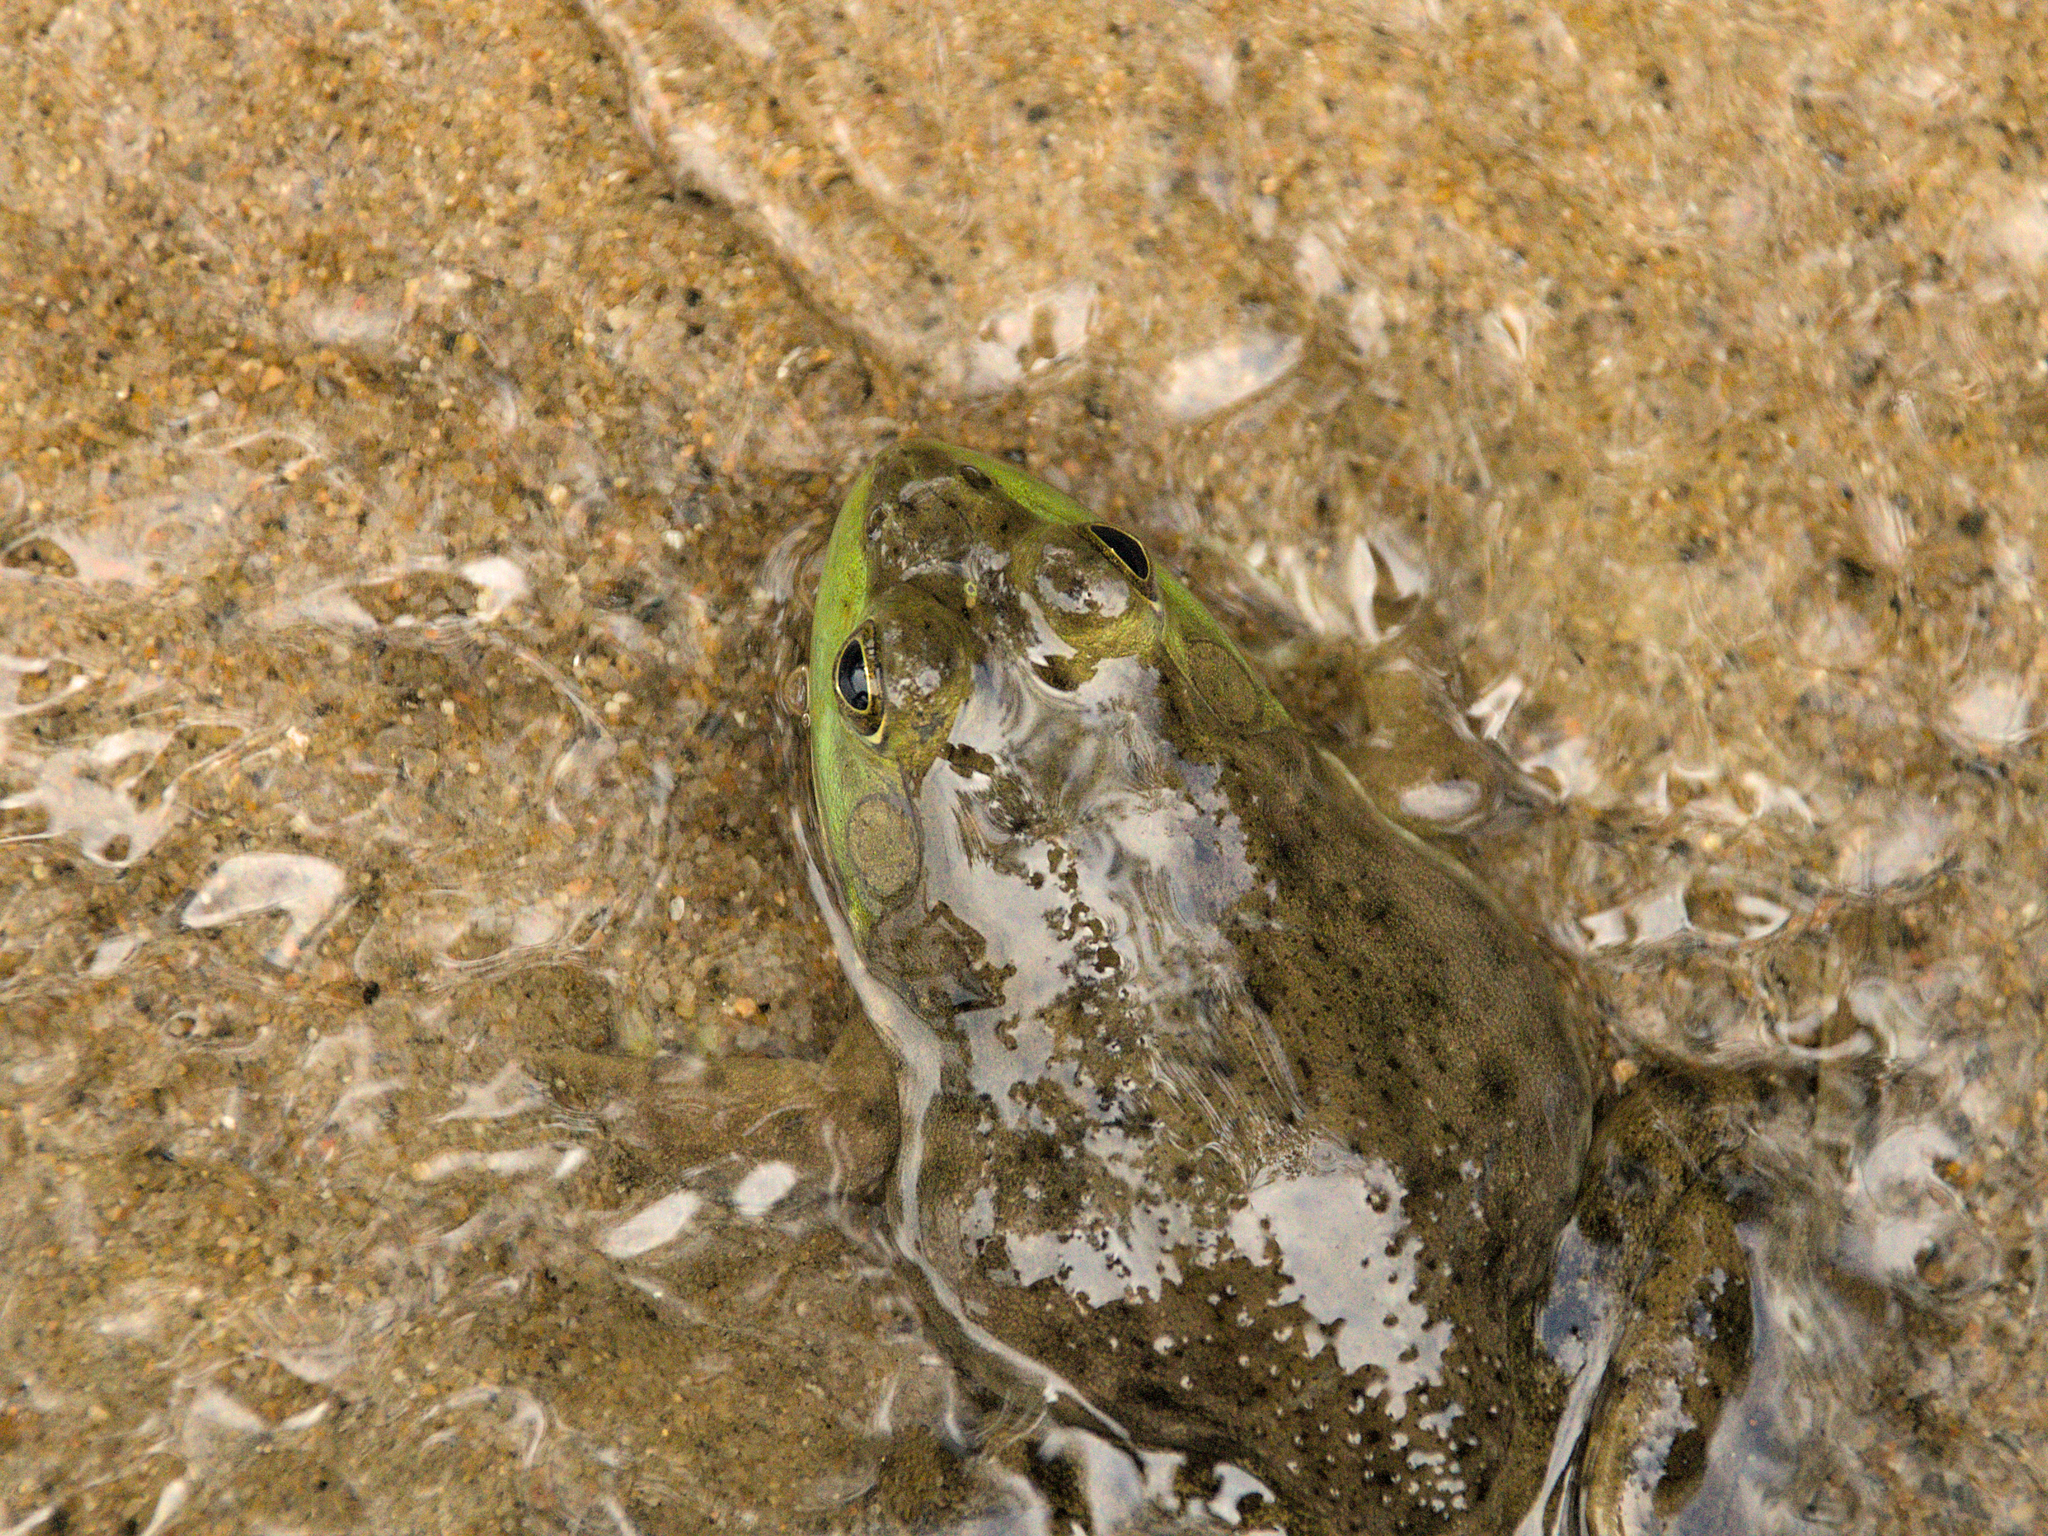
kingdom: Animalia
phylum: Chordata
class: Amphibia
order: Anura
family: Ranidae
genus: Lithobates
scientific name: Lithobates catesbeianus
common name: American bullfrog
